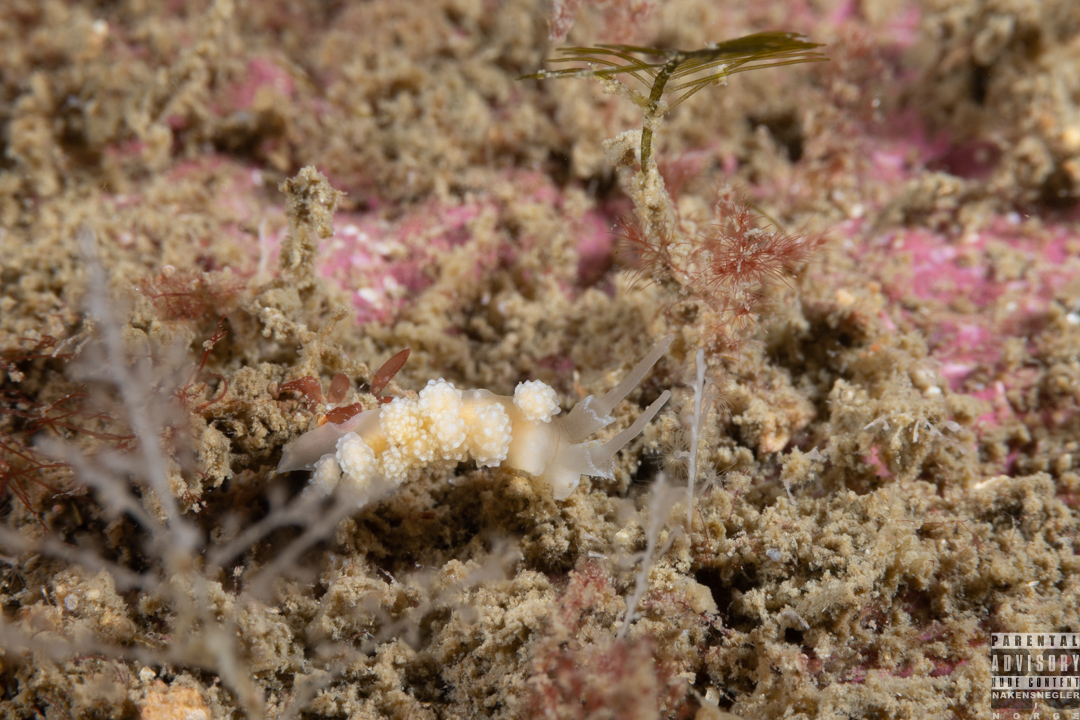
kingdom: Animalia
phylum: Mollusca
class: Gastropoda
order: Nudibranchia
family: Dotidae
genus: Doto
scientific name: Doto fragilis
